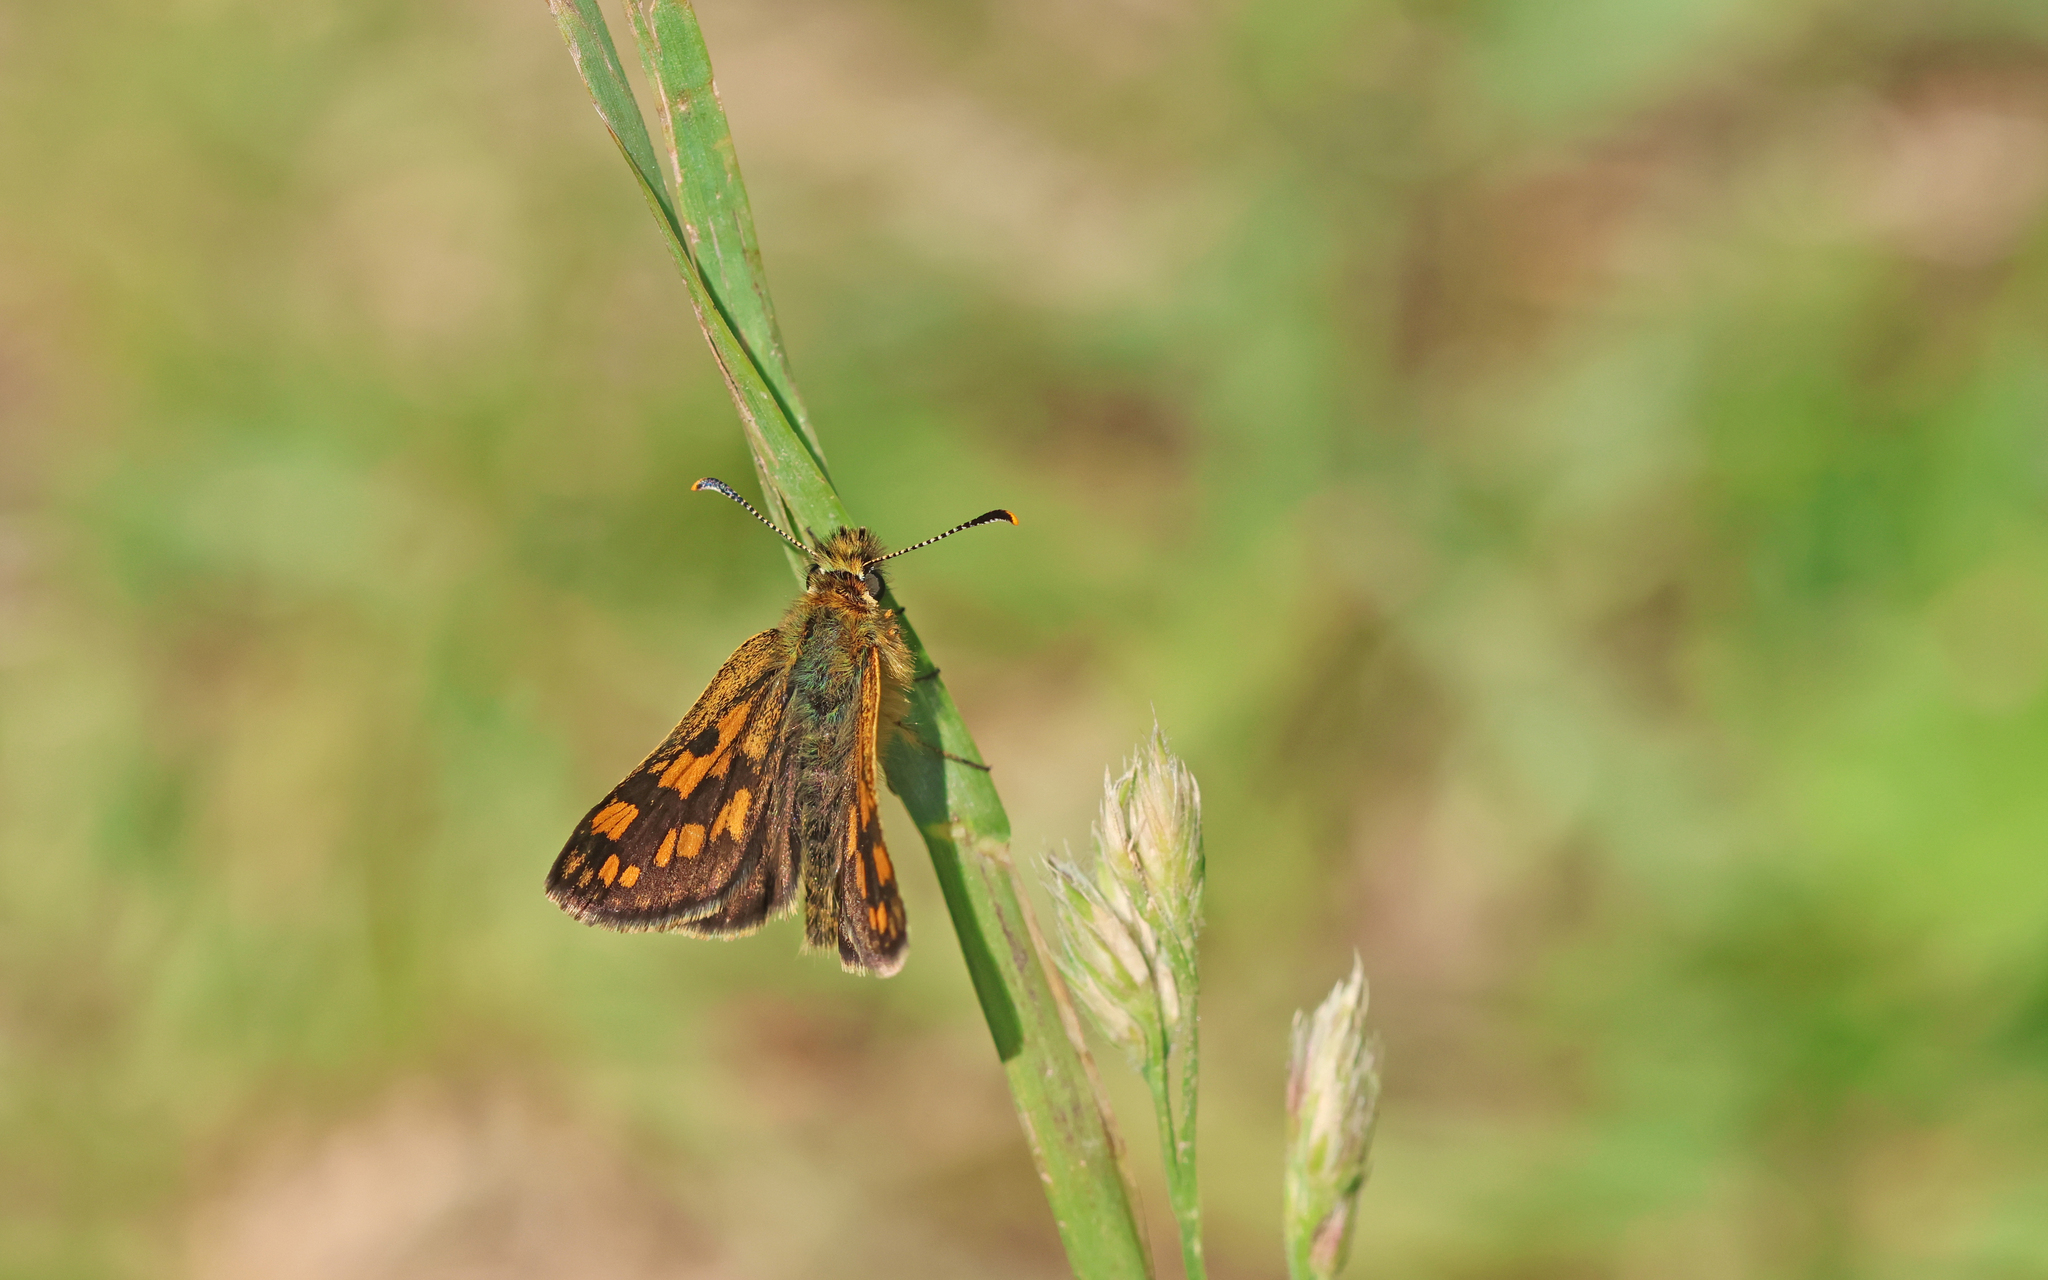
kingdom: Animalia
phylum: Arthropoda
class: Insecta
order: Lepidoptera
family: Hesperiidae
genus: Carterocephalus
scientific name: Carterocephalus palaemon
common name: Chequered skipper
